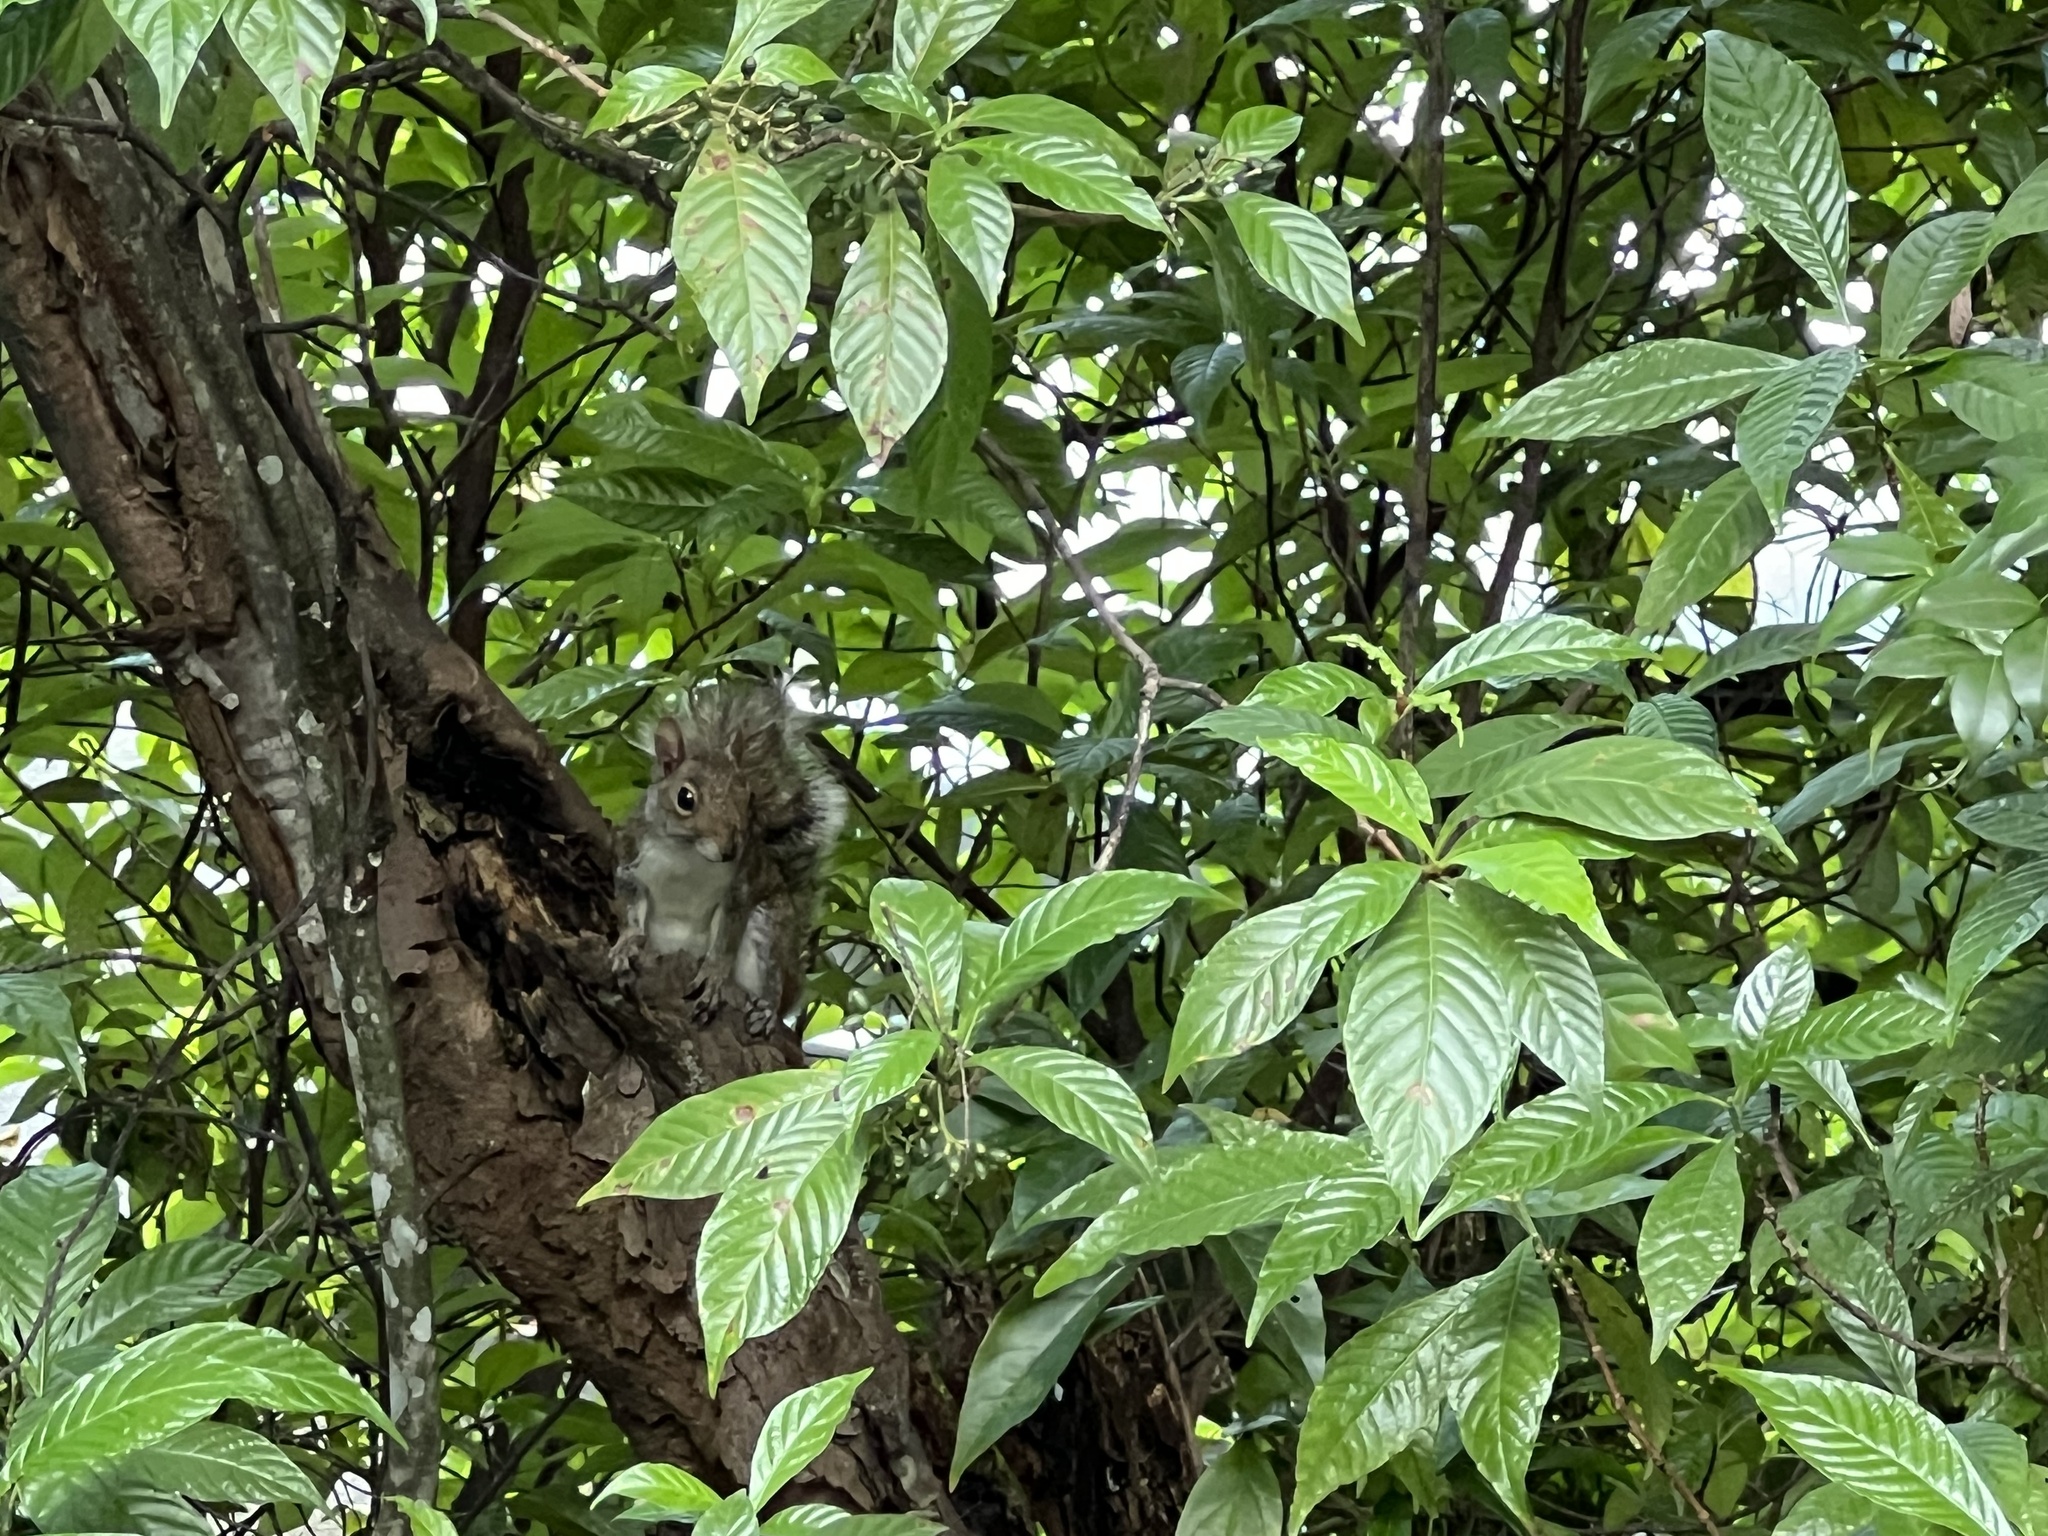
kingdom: Animalia
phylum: Chordata
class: Mammalia
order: Rodentia
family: Sciuridae
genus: Sciurus
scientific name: Sciurus carolinensis
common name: Eastern gray squirrel
